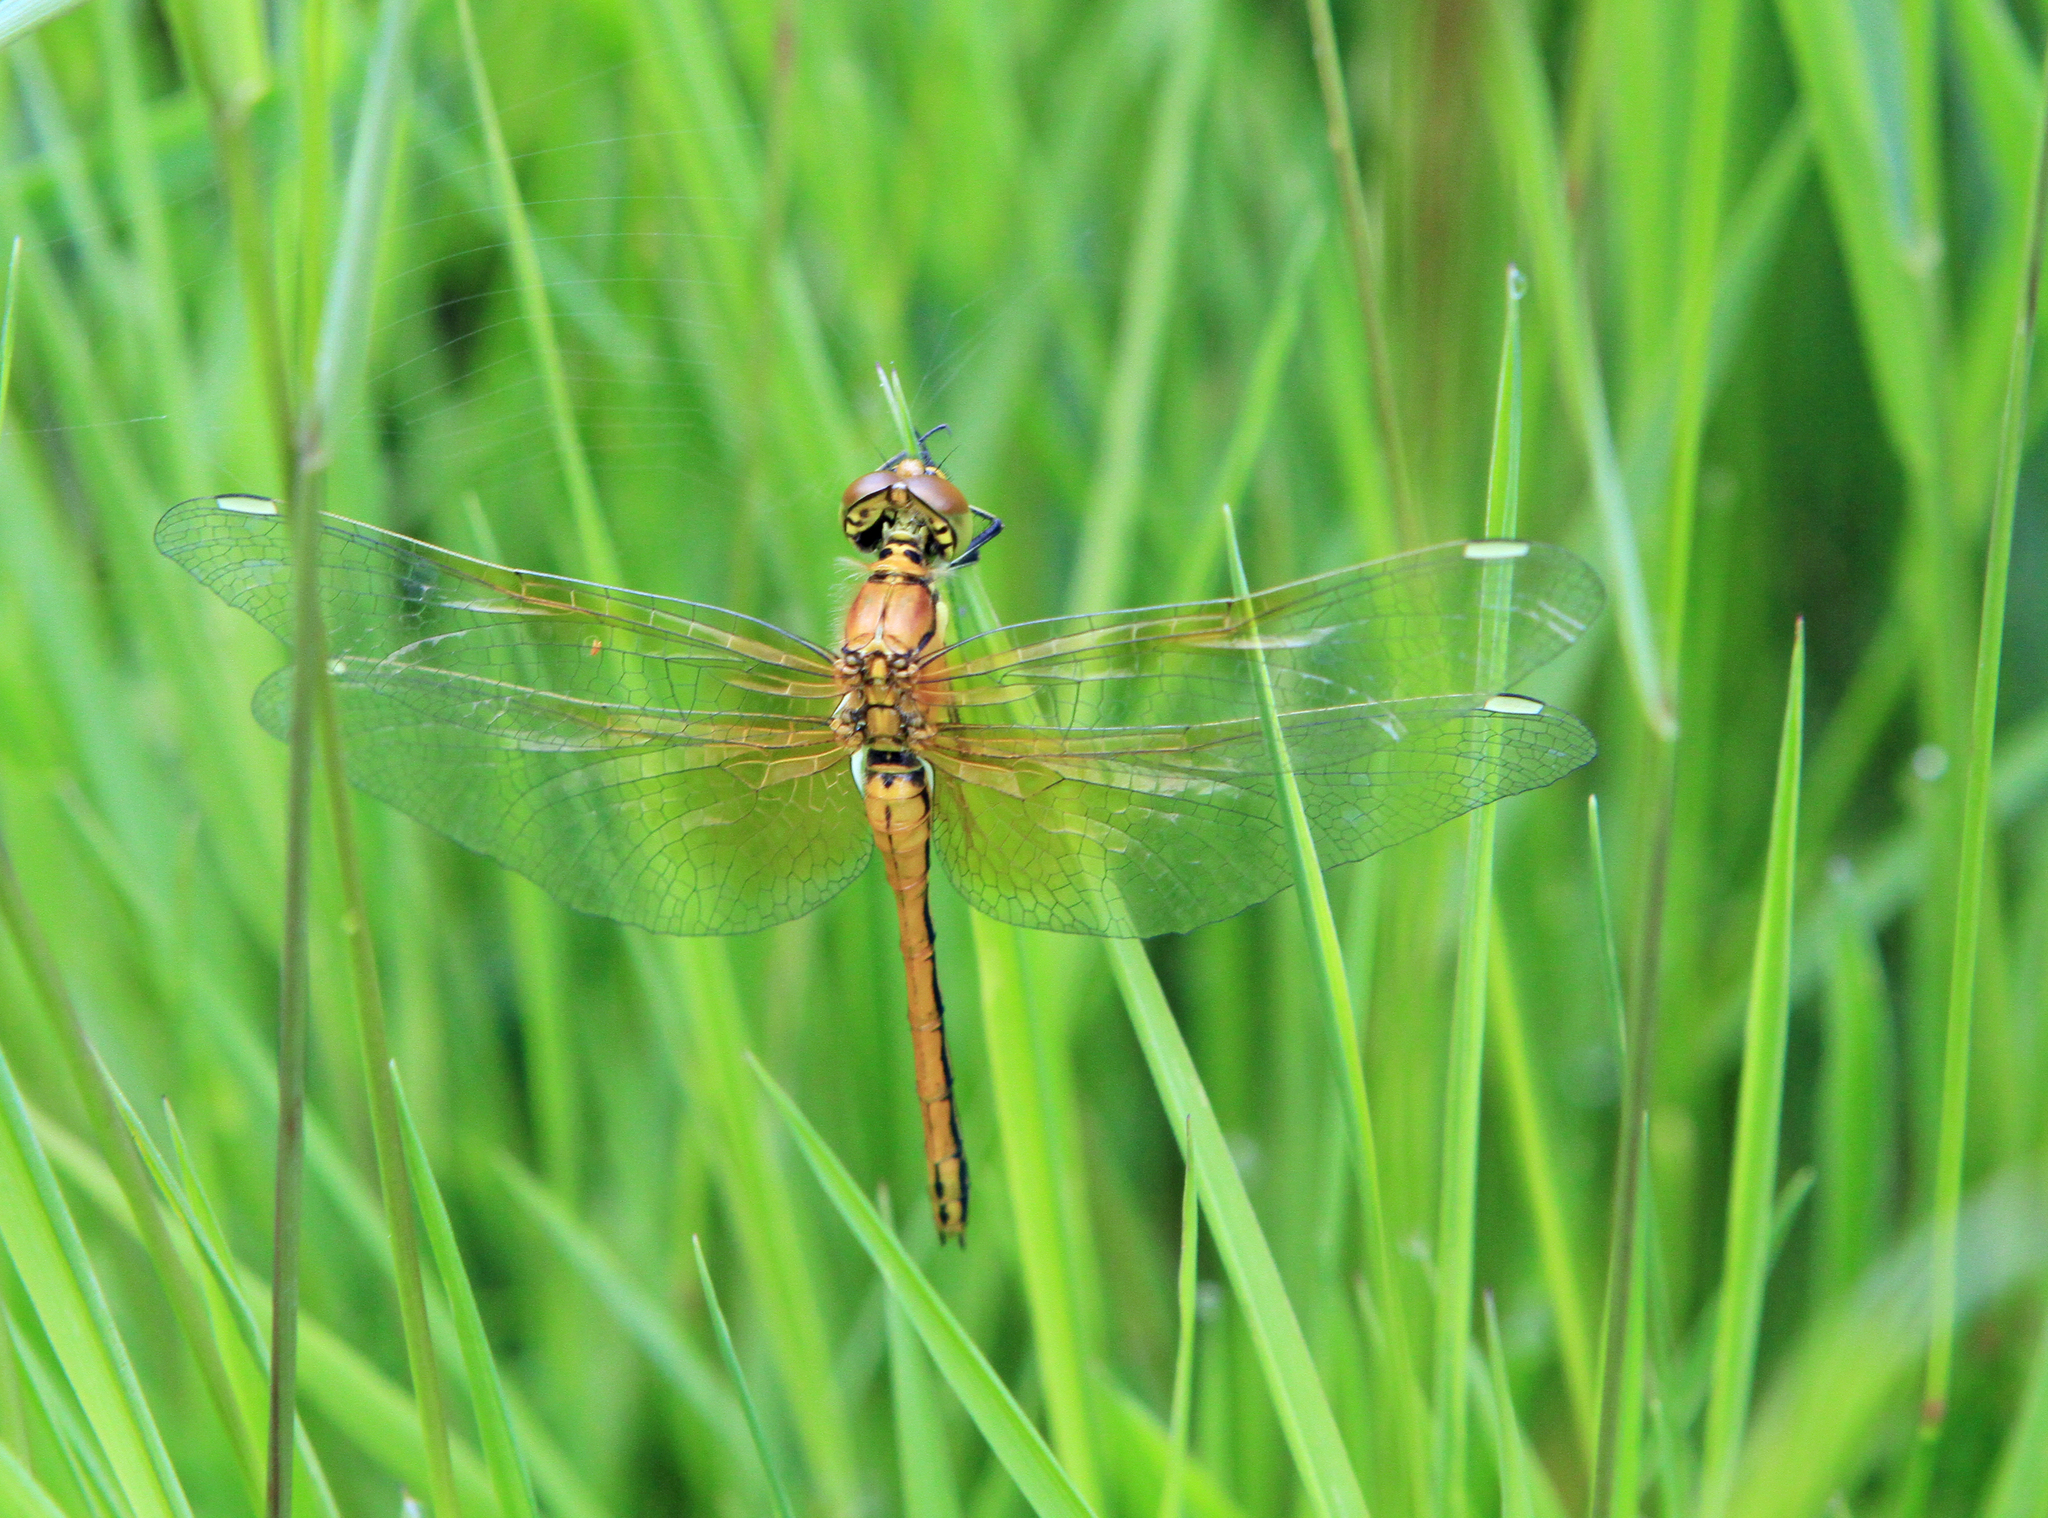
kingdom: Animalia
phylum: Arthropoda
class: Insecta
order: Odonata
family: Libellulidae
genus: Sympetrum
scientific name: Sympetrum flaveolum
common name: Yellow-winged darter
